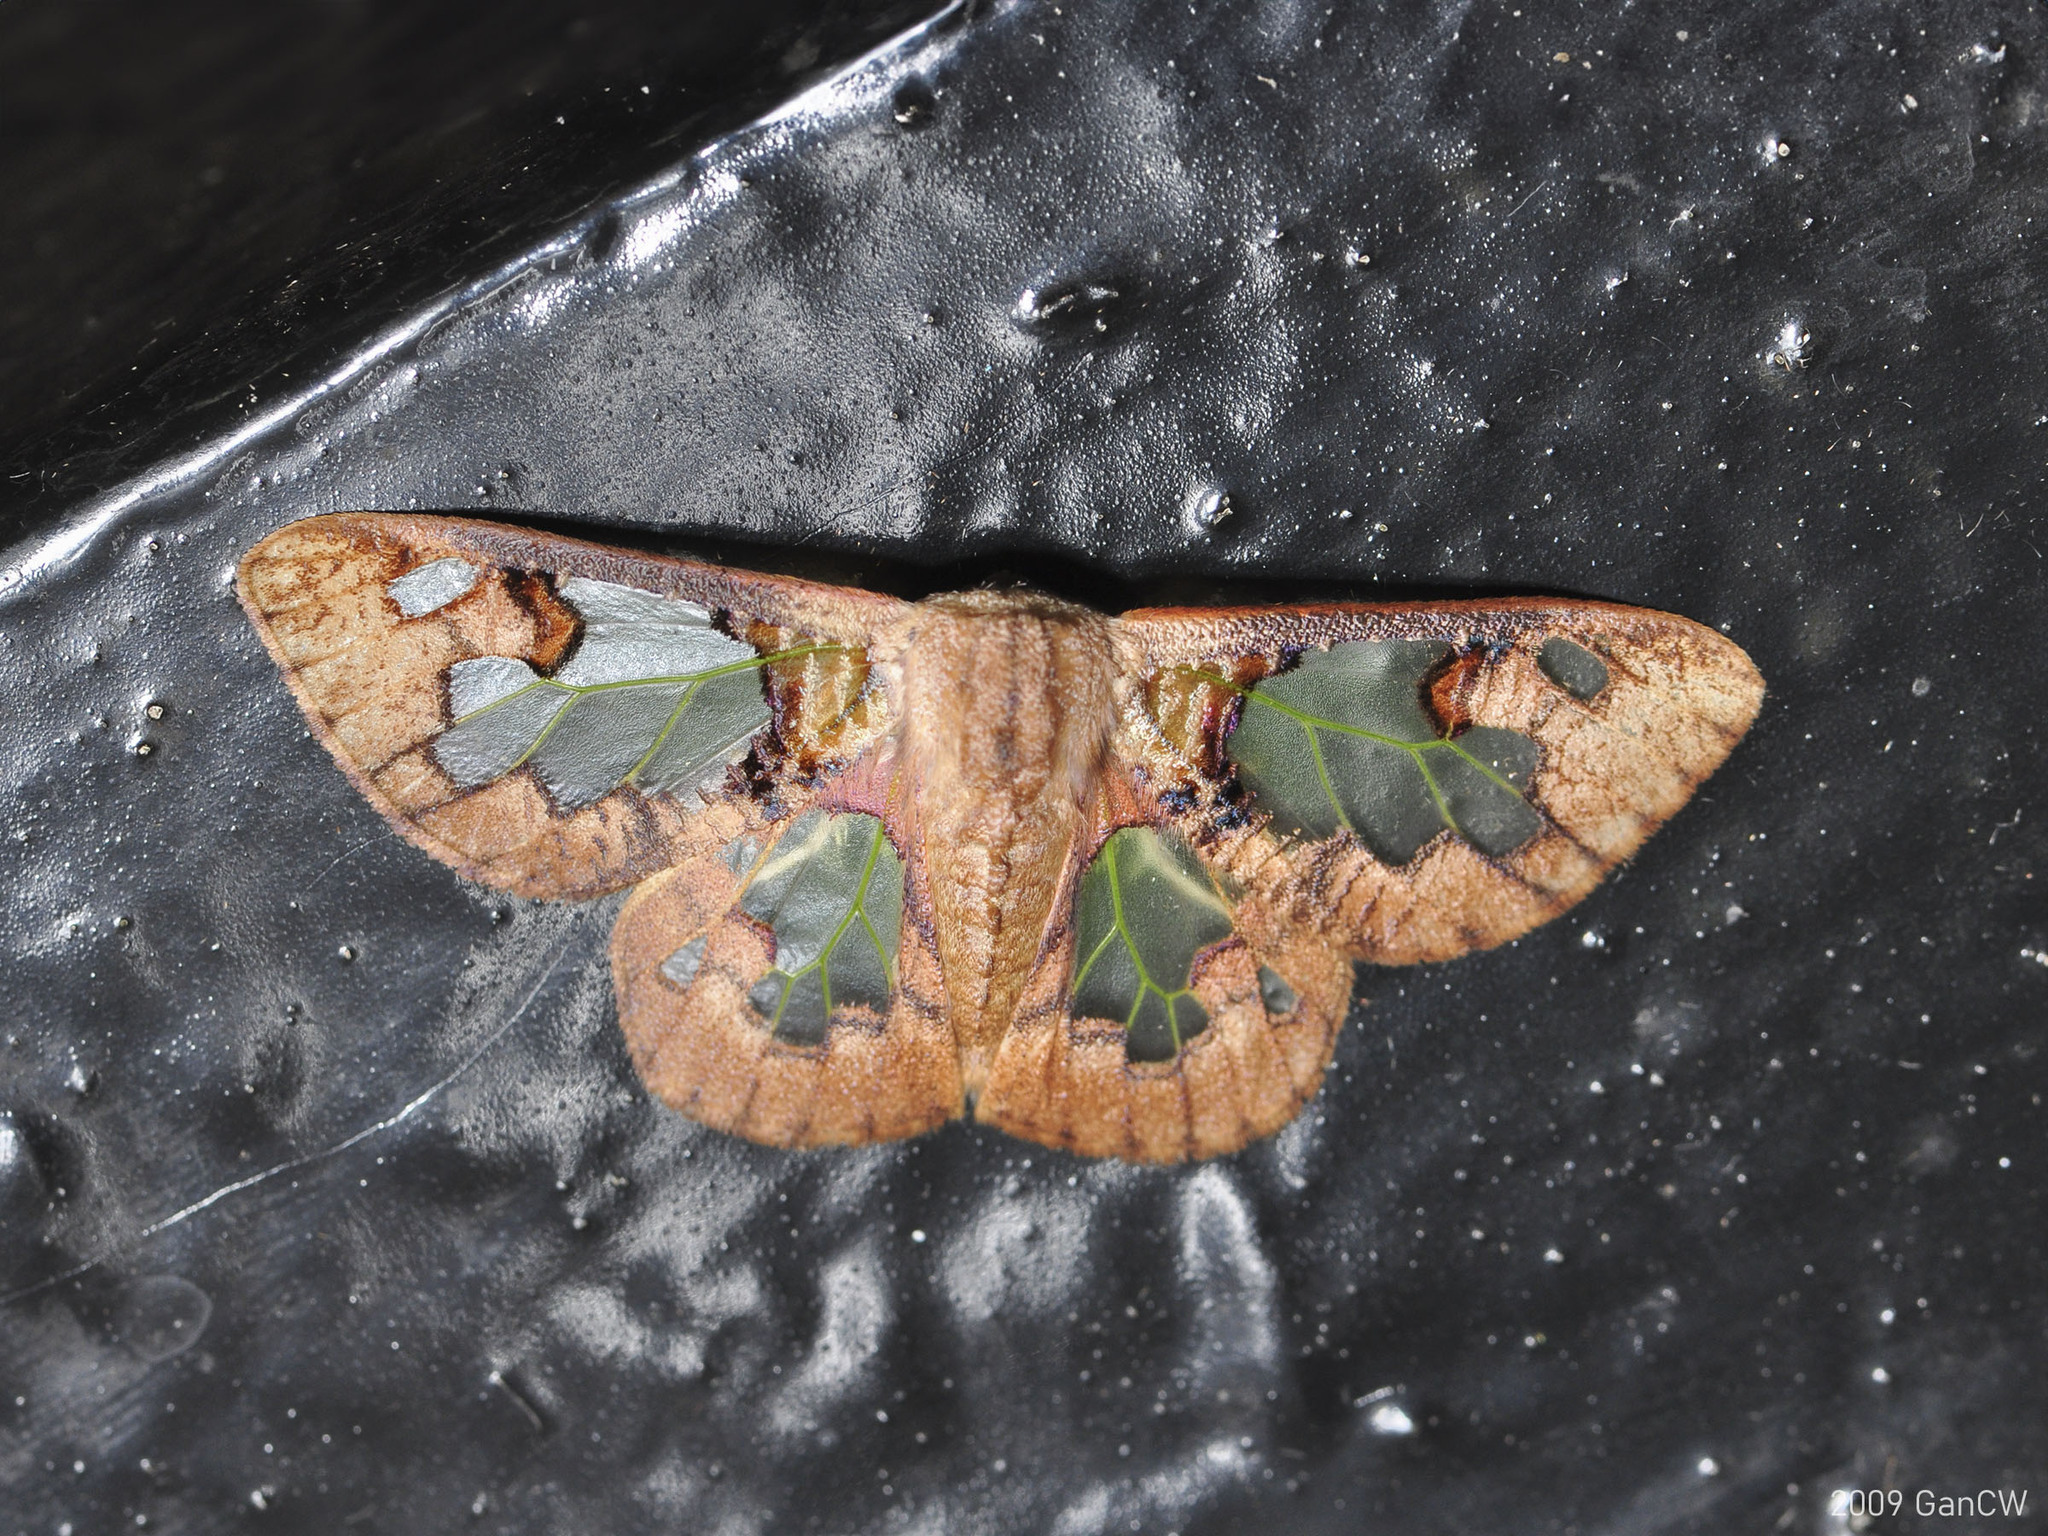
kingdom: Animalia
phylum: Arthropoda
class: Insecta
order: Lepidoptera
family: Erebidae
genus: Carriola
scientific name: Carriola thyridophora
